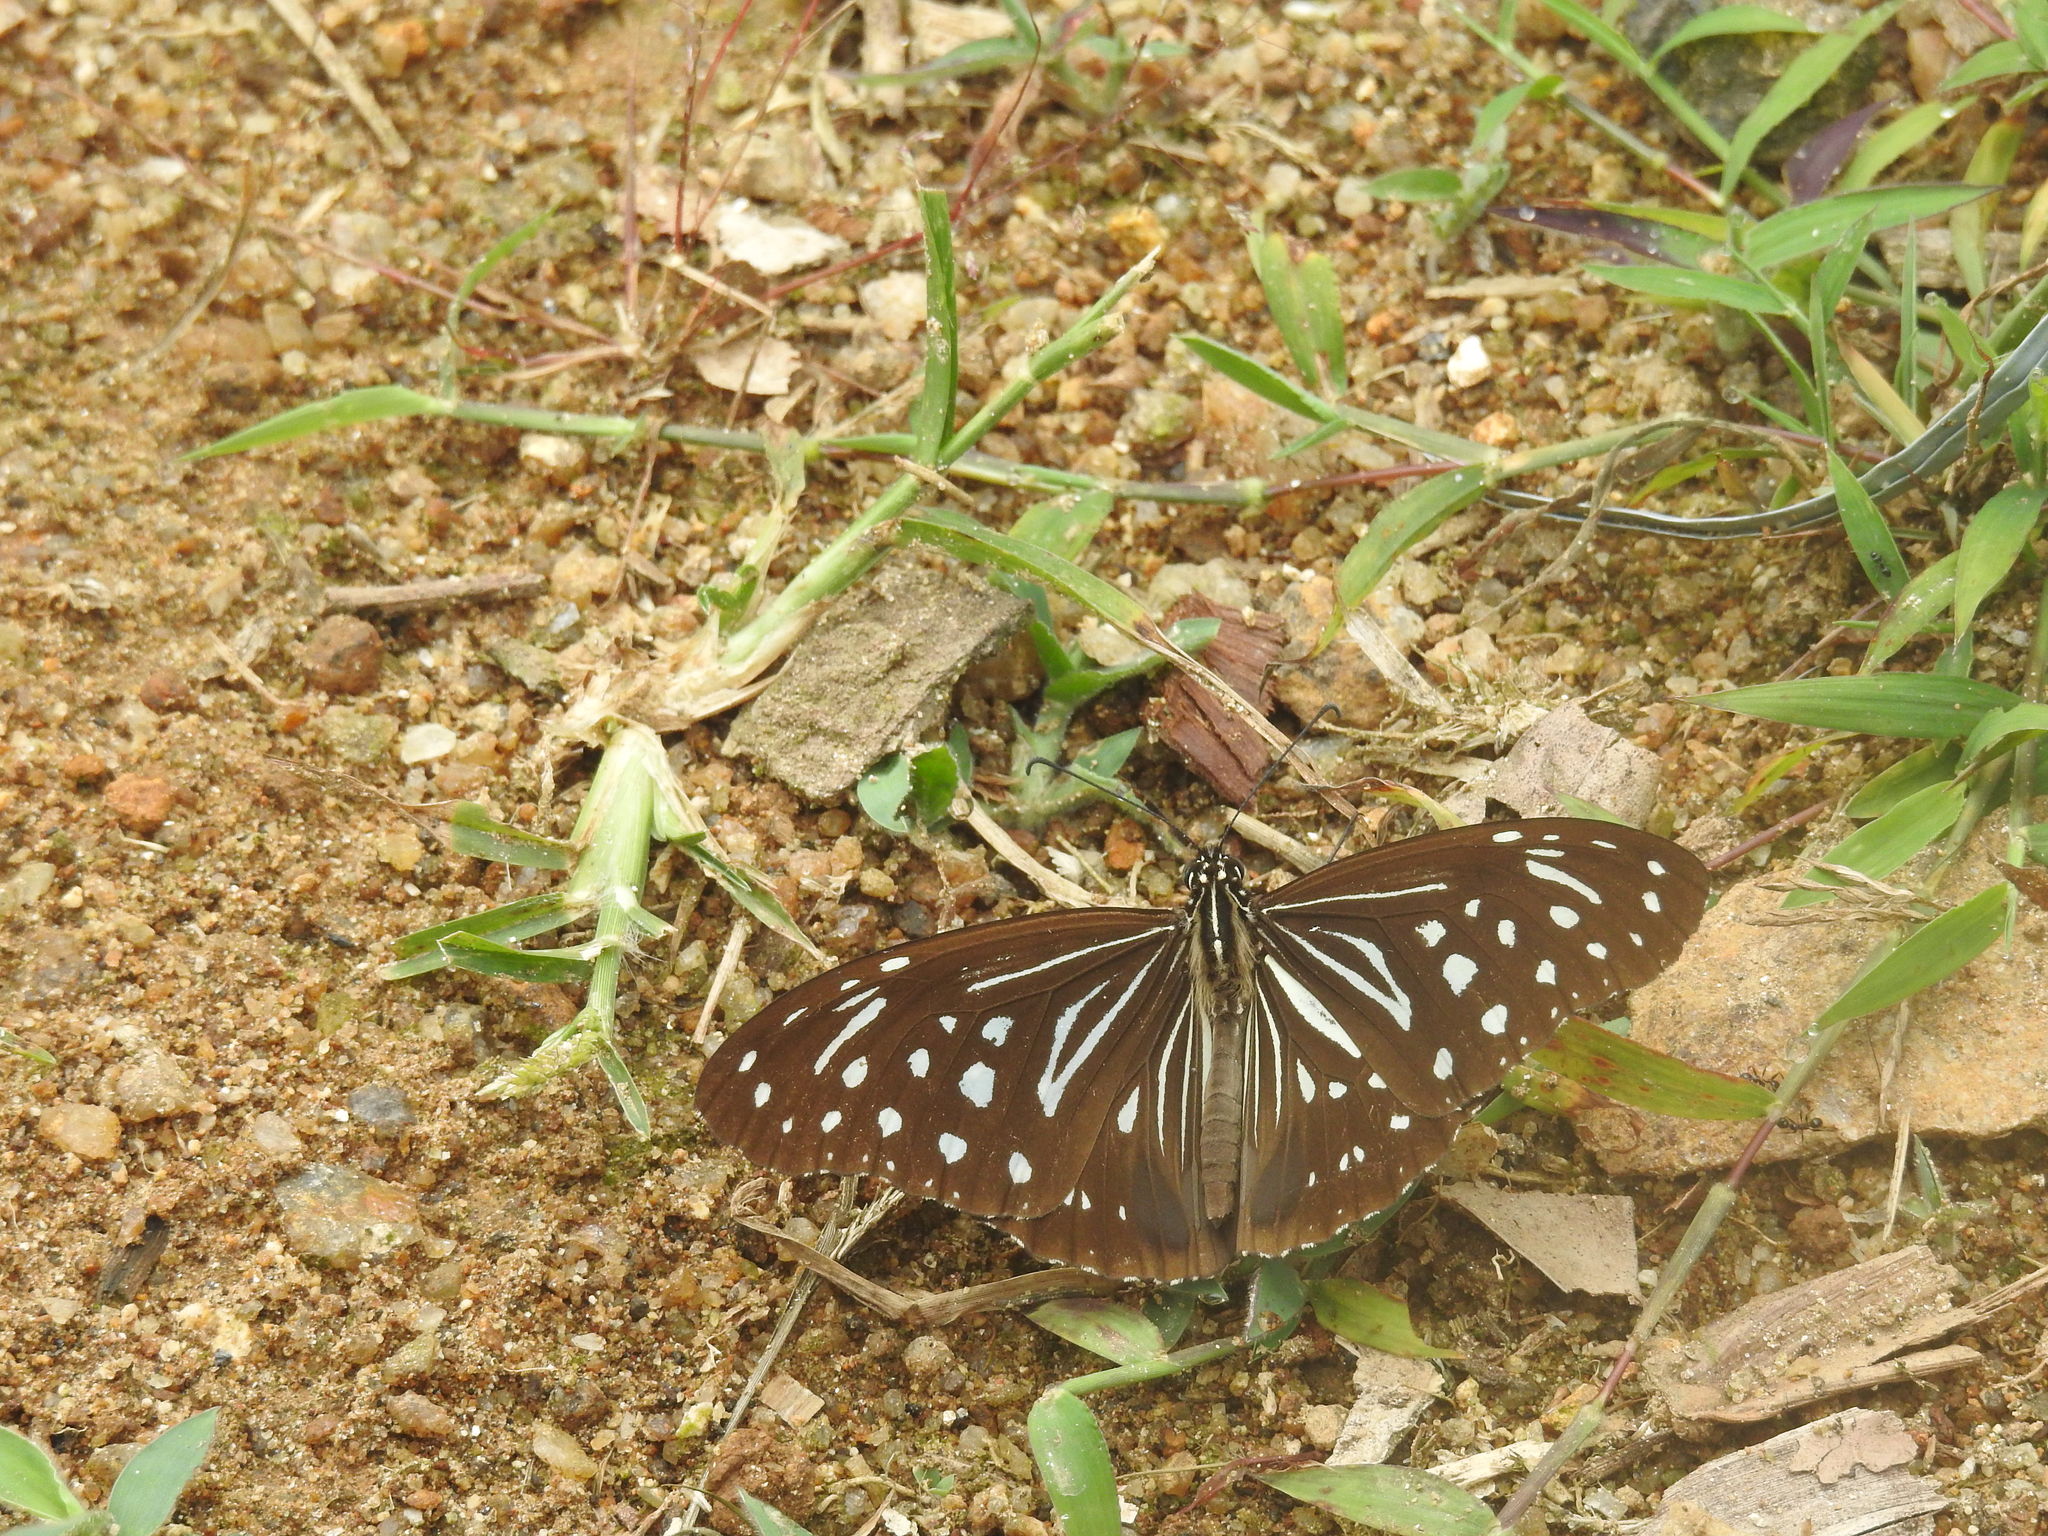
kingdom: Animalia
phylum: Arthropoda
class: Insecta
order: Lepidoptera
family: Nymphalidae
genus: Parantica
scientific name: Parantica nilgiriensis
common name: Nilgiri tiger
